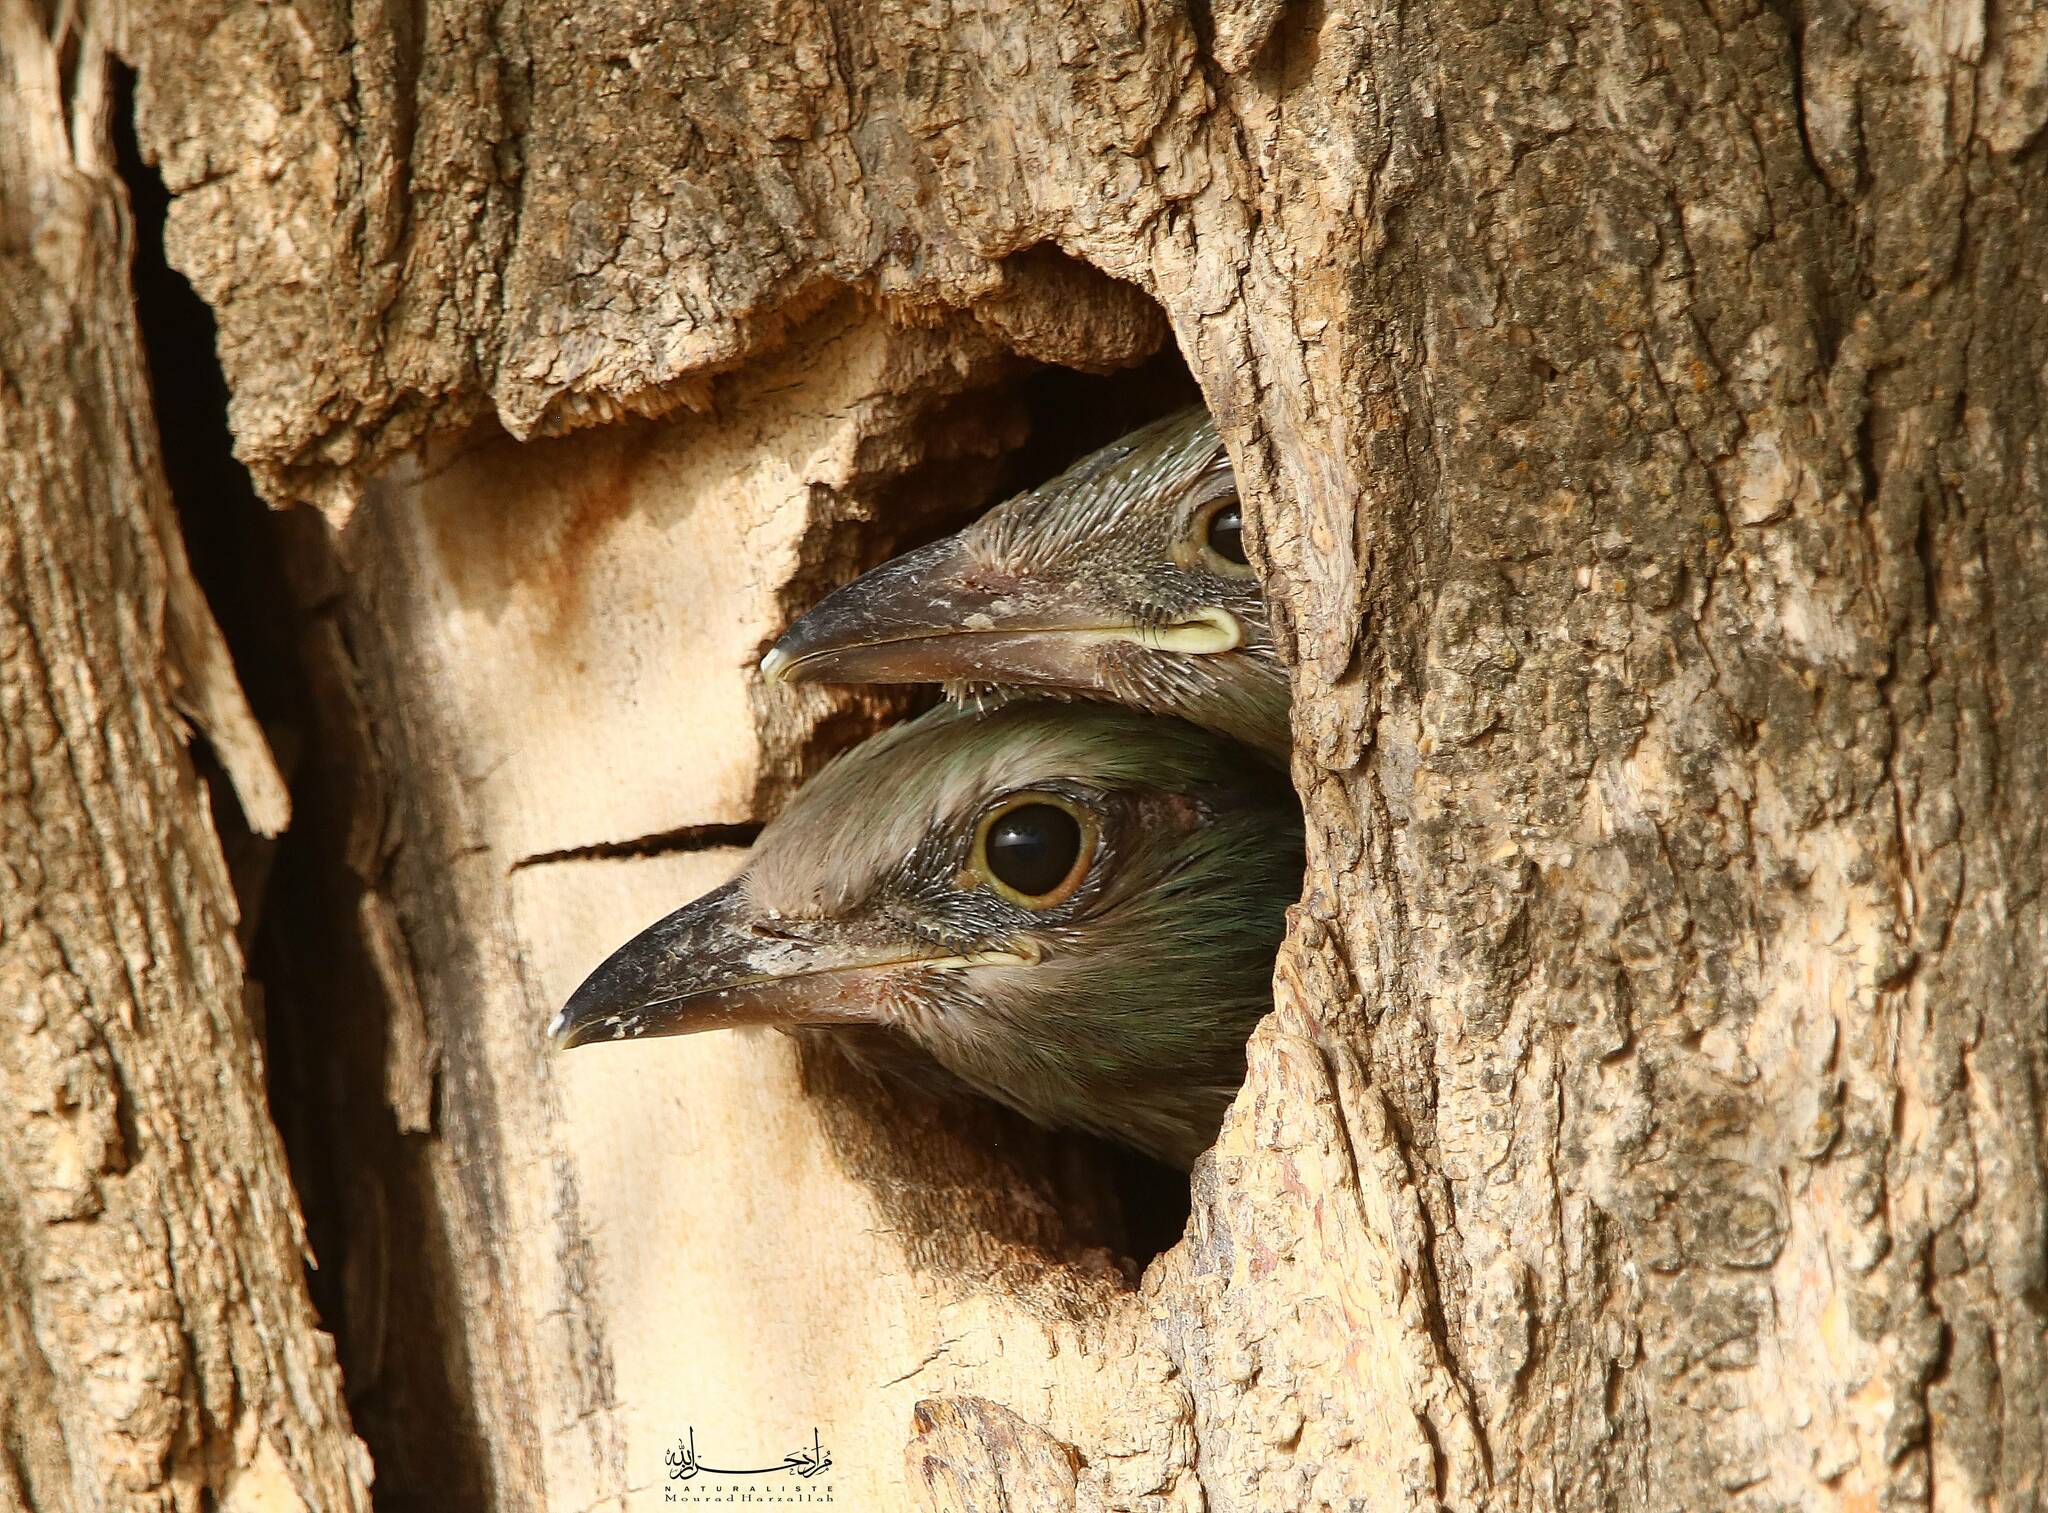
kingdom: Animalia
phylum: Chordata
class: Aves
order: Coraciiformes
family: Coraciidae
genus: Coracias
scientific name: Coracias garrulus
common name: European roller
